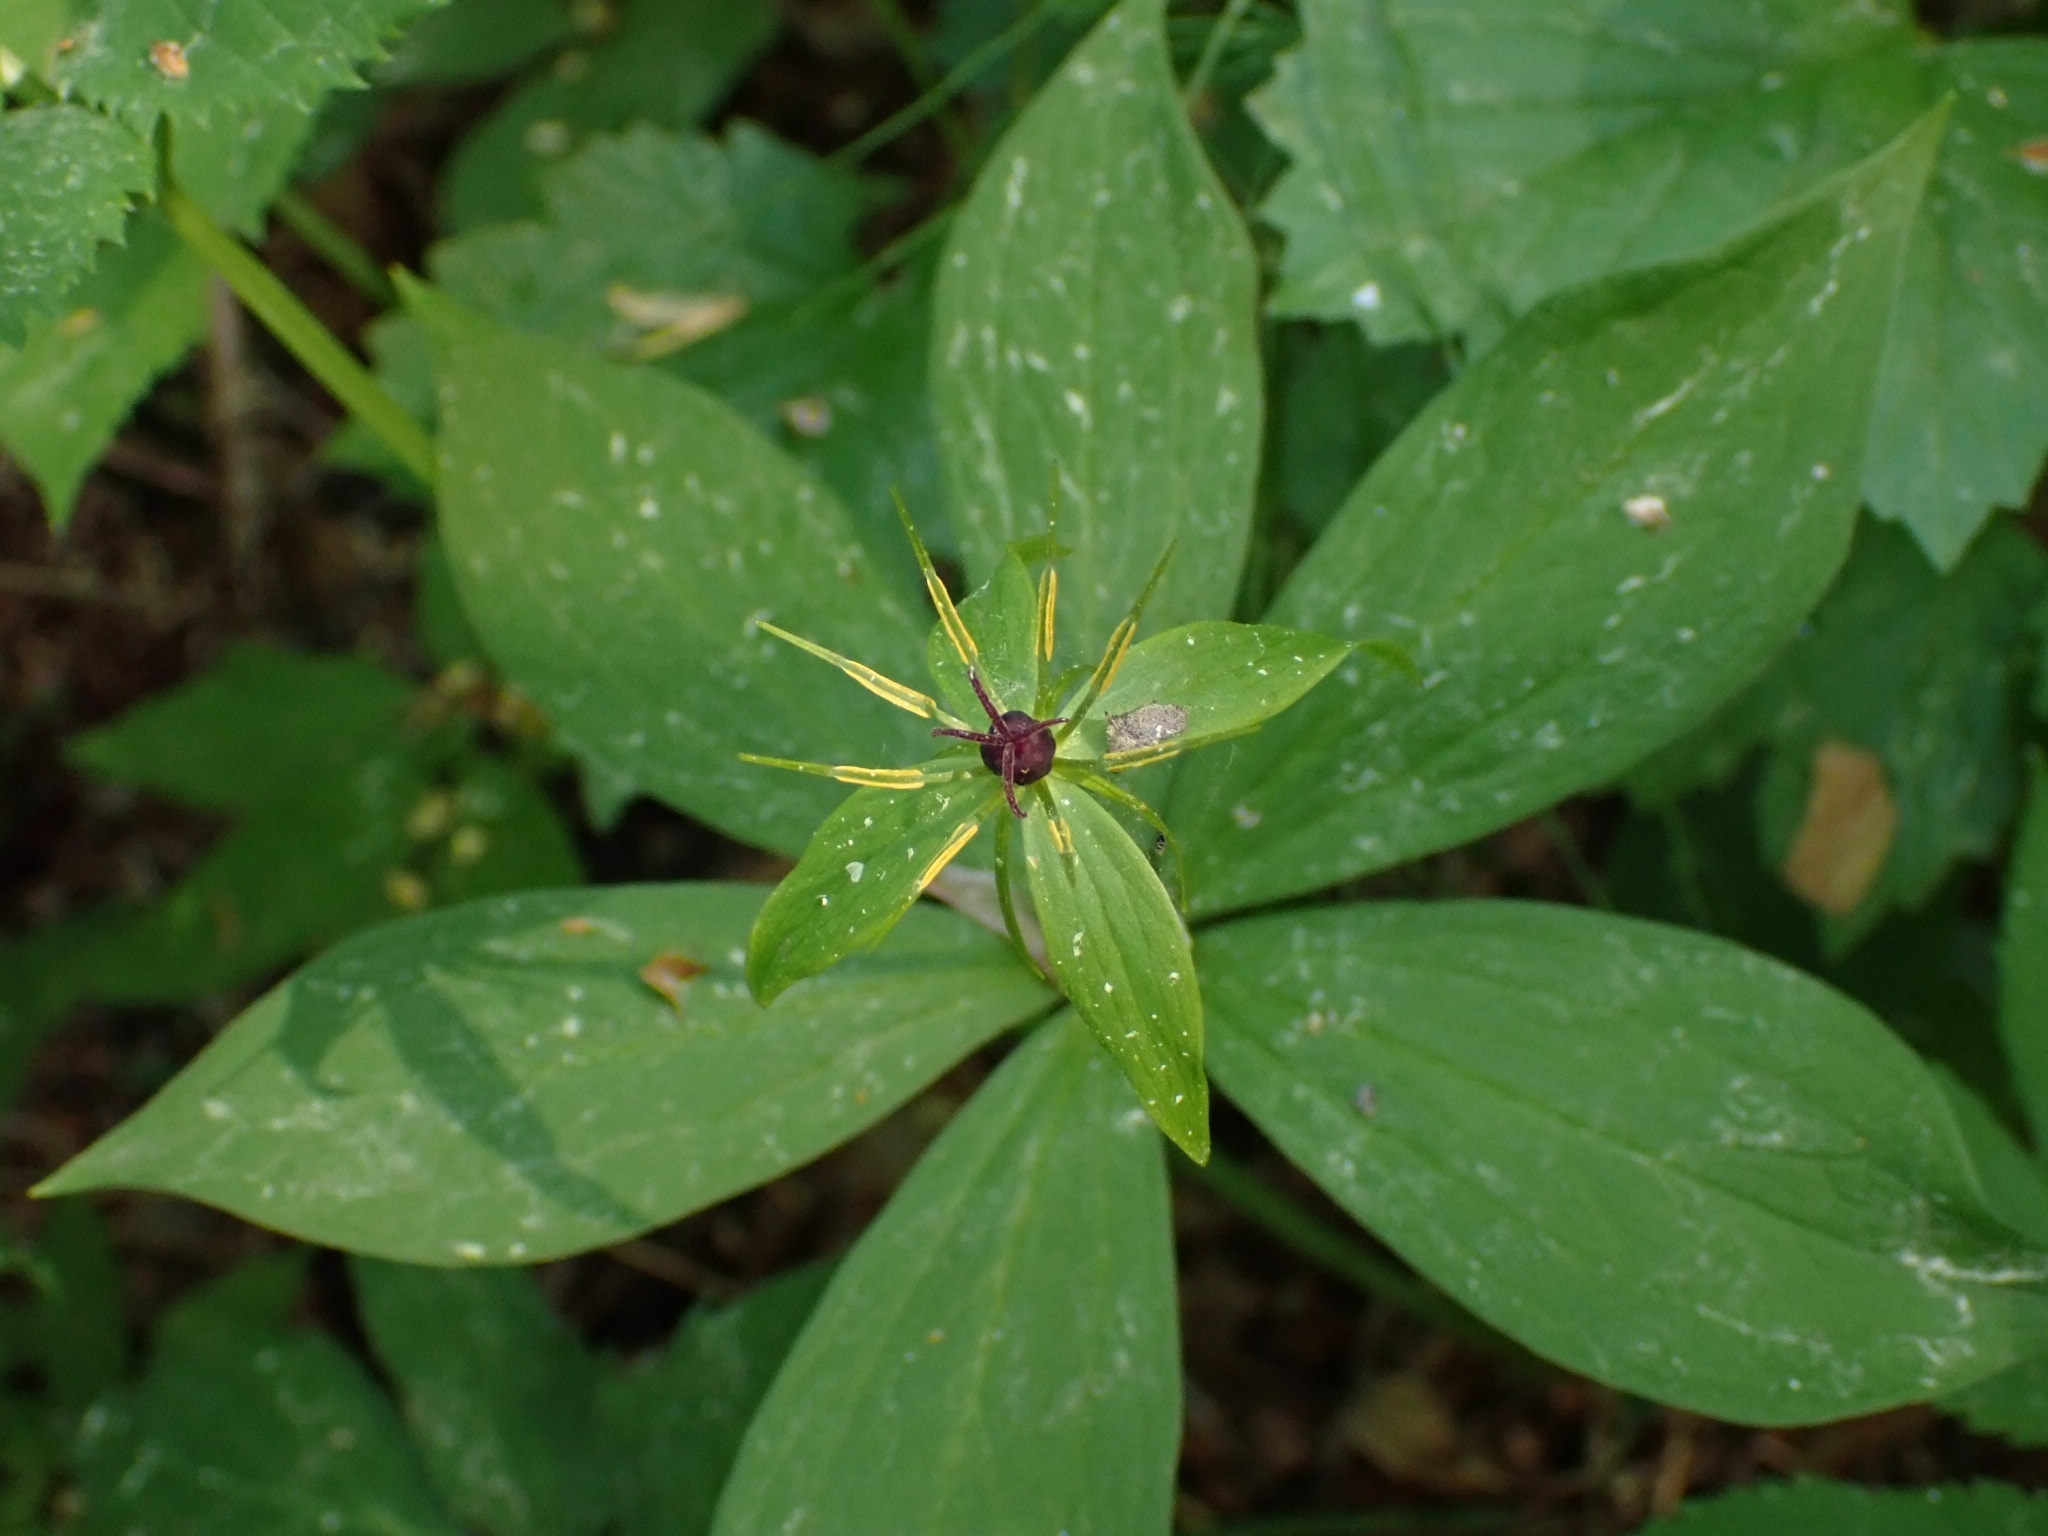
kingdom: Plantae
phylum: Tracheophyta
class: Liliopsida
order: Liliales
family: Melanthiaceae
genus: Paris
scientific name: Paris quadrifolia
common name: Herb-paris
